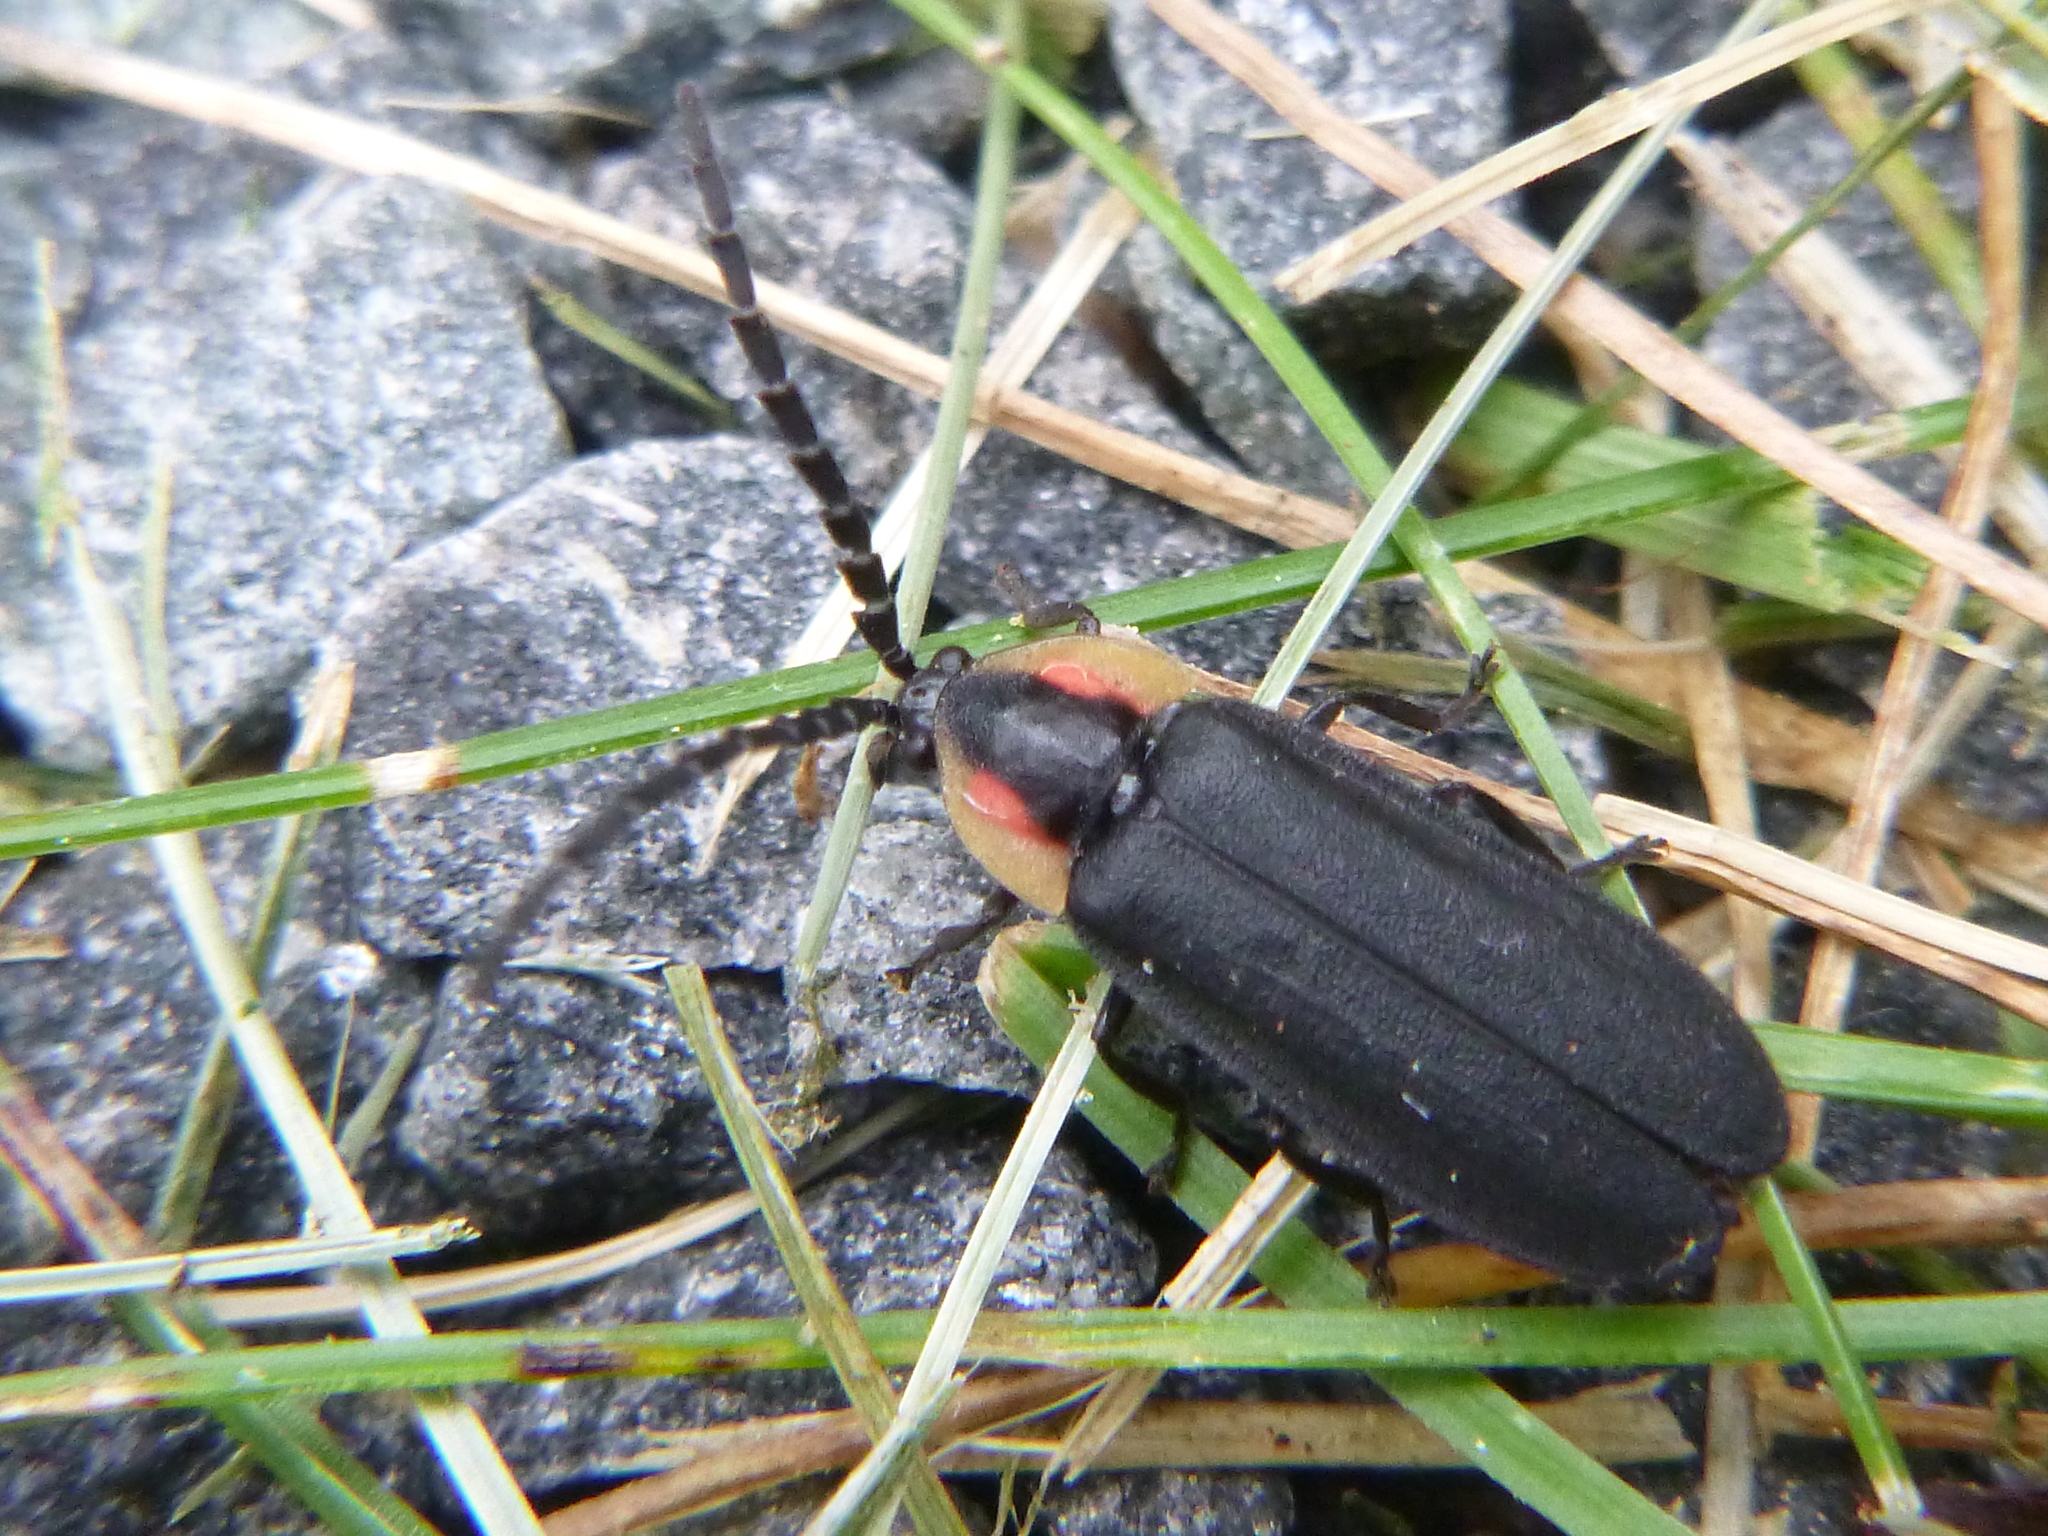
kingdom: Animalia
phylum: Arthropoda
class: Insecta
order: Coleoptera
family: Lampyridae
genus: Lucidota
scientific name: Lucidota atra
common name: Black firefly
